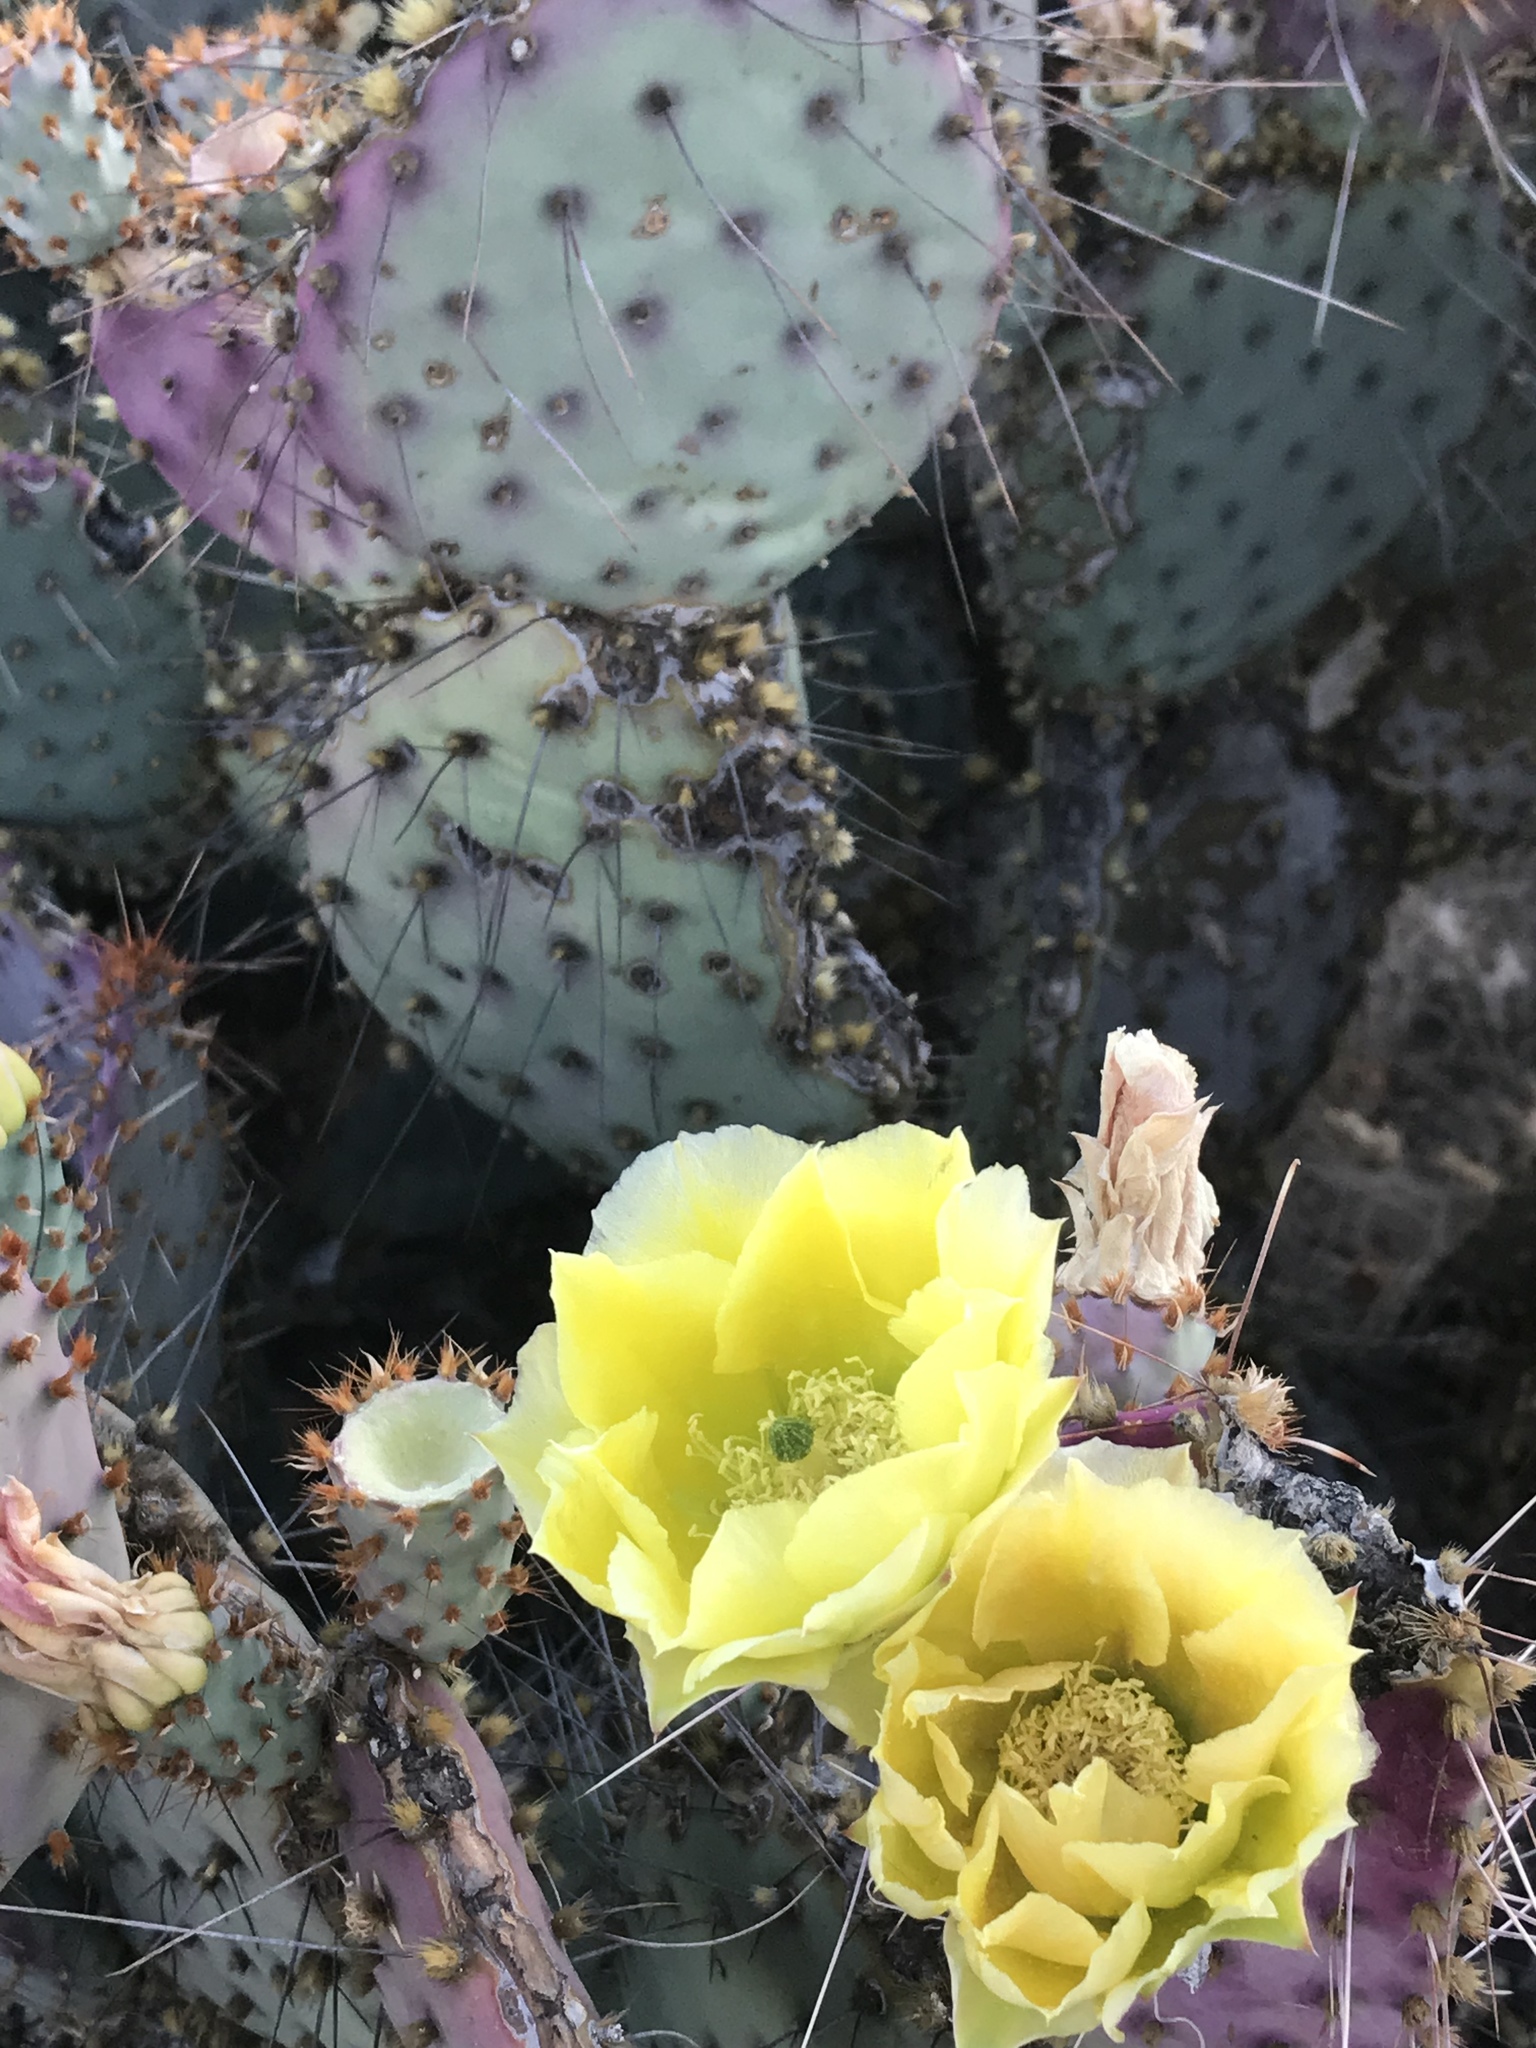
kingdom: Plantae
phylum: Tracheophyta
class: Magnoliopsida
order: Caryophyllales
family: Cactaceae
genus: Opuntia
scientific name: Opuntia gosseliniana
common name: Violet prickly-pear
